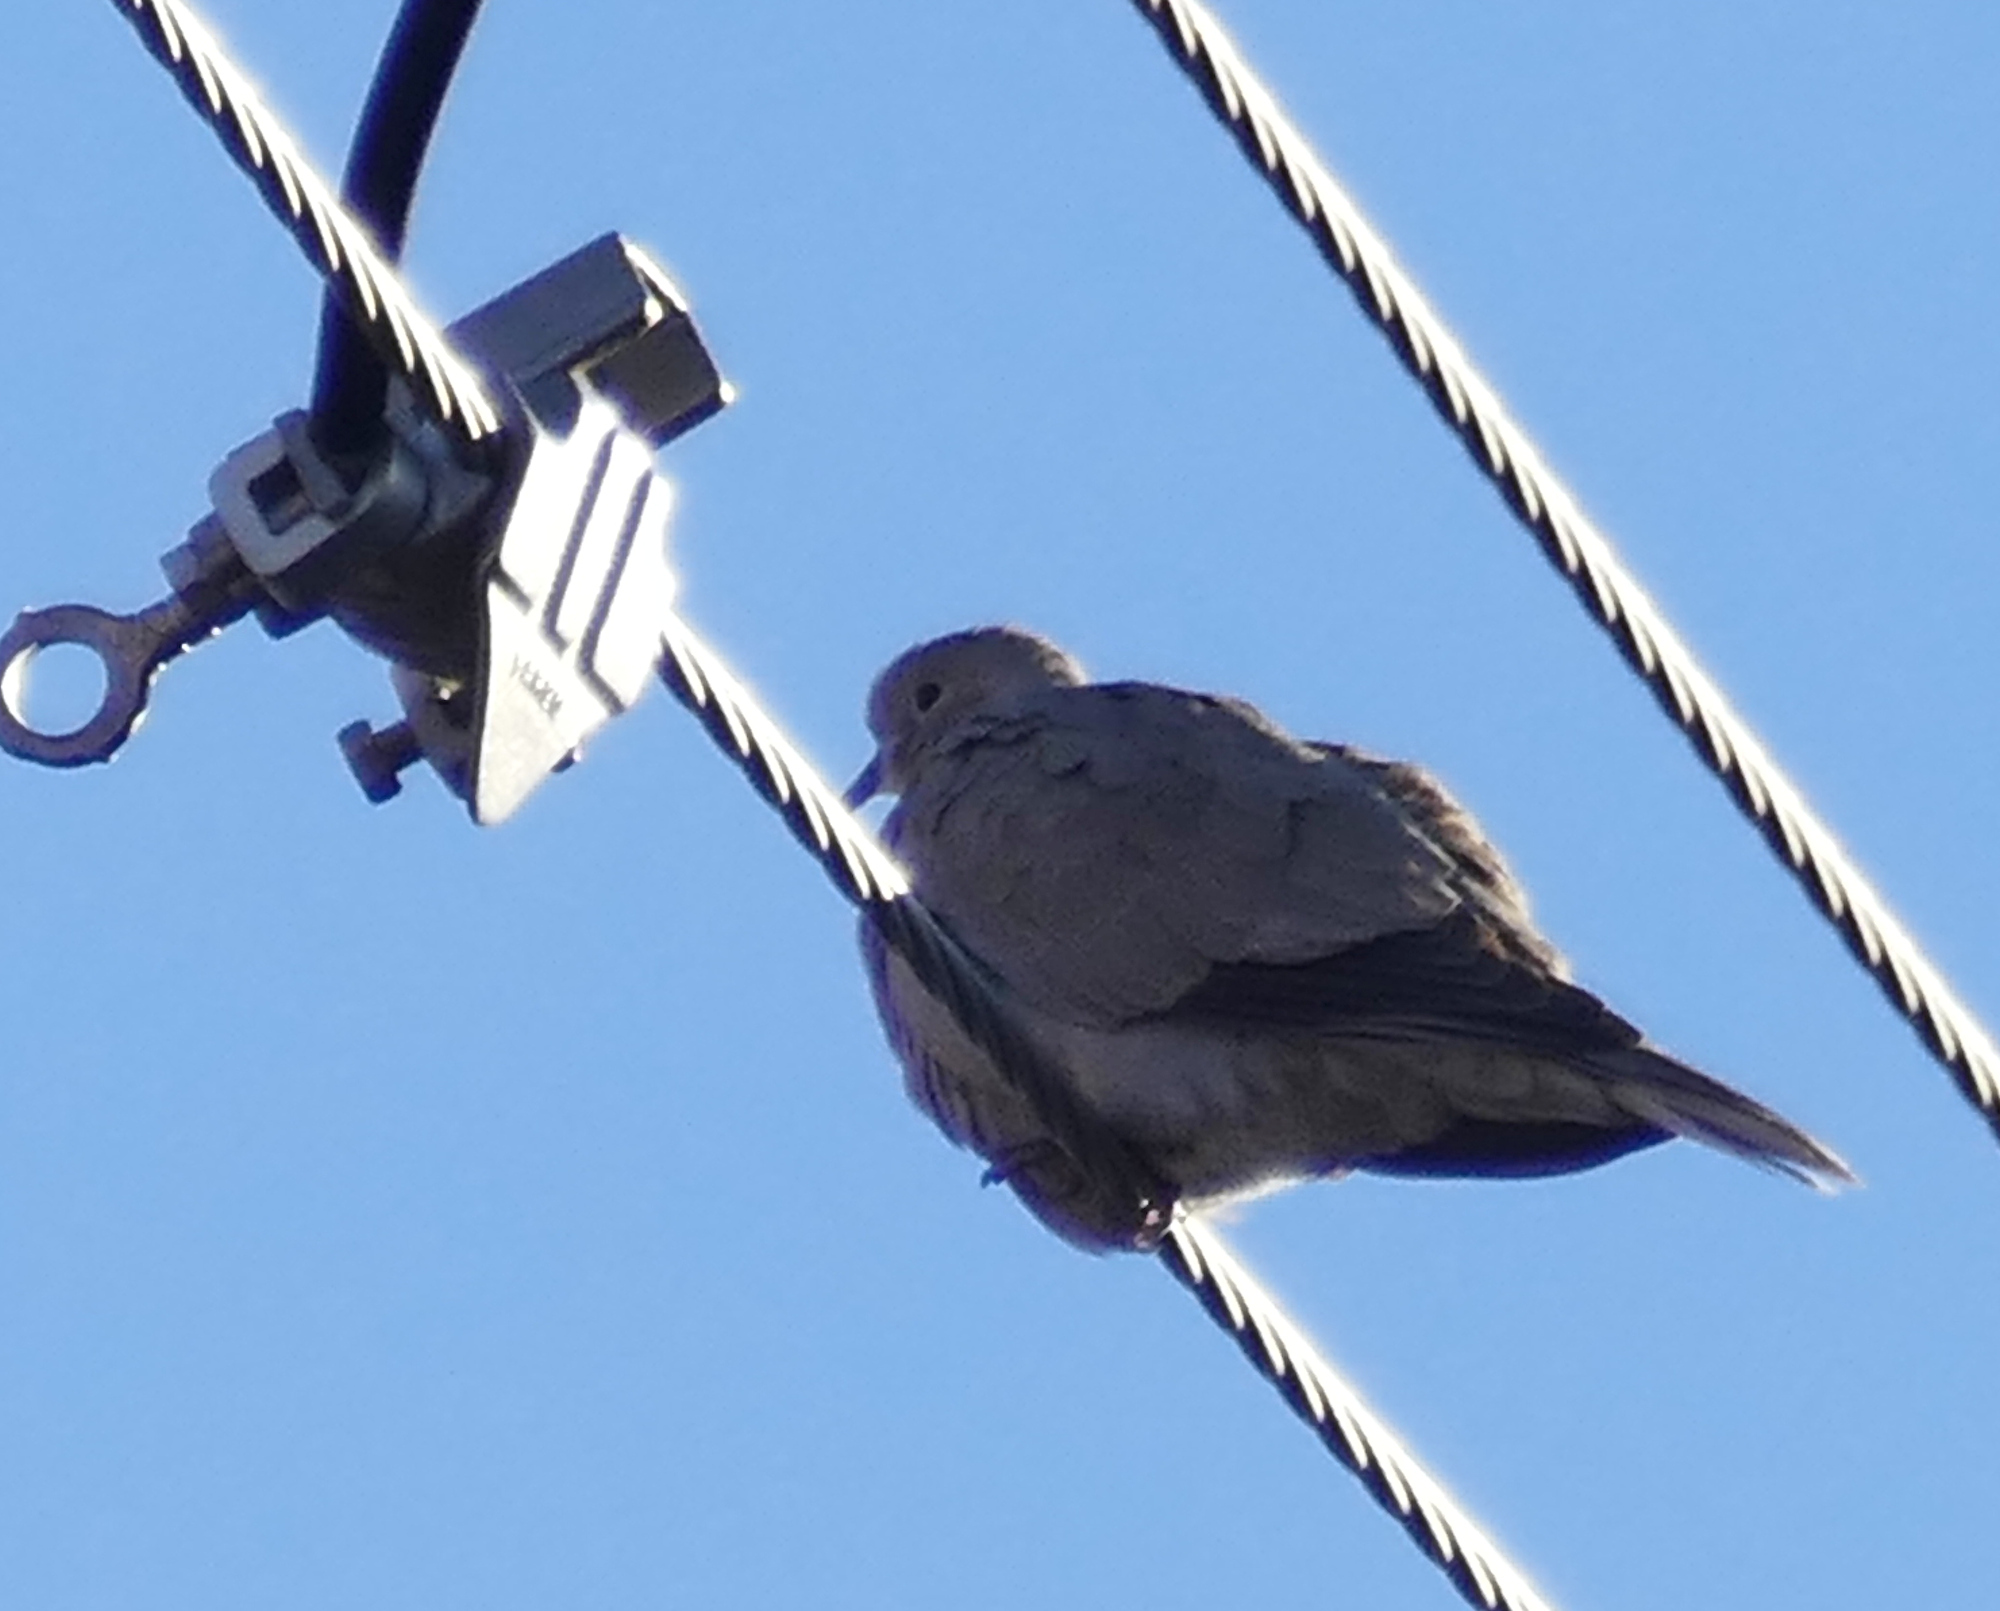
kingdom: Animalia
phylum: Chordata
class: Aves
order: Columbiformes
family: Columbidae
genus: Streptopelia
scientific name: Streptopelia decaocto
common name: Eurasian collared dove
